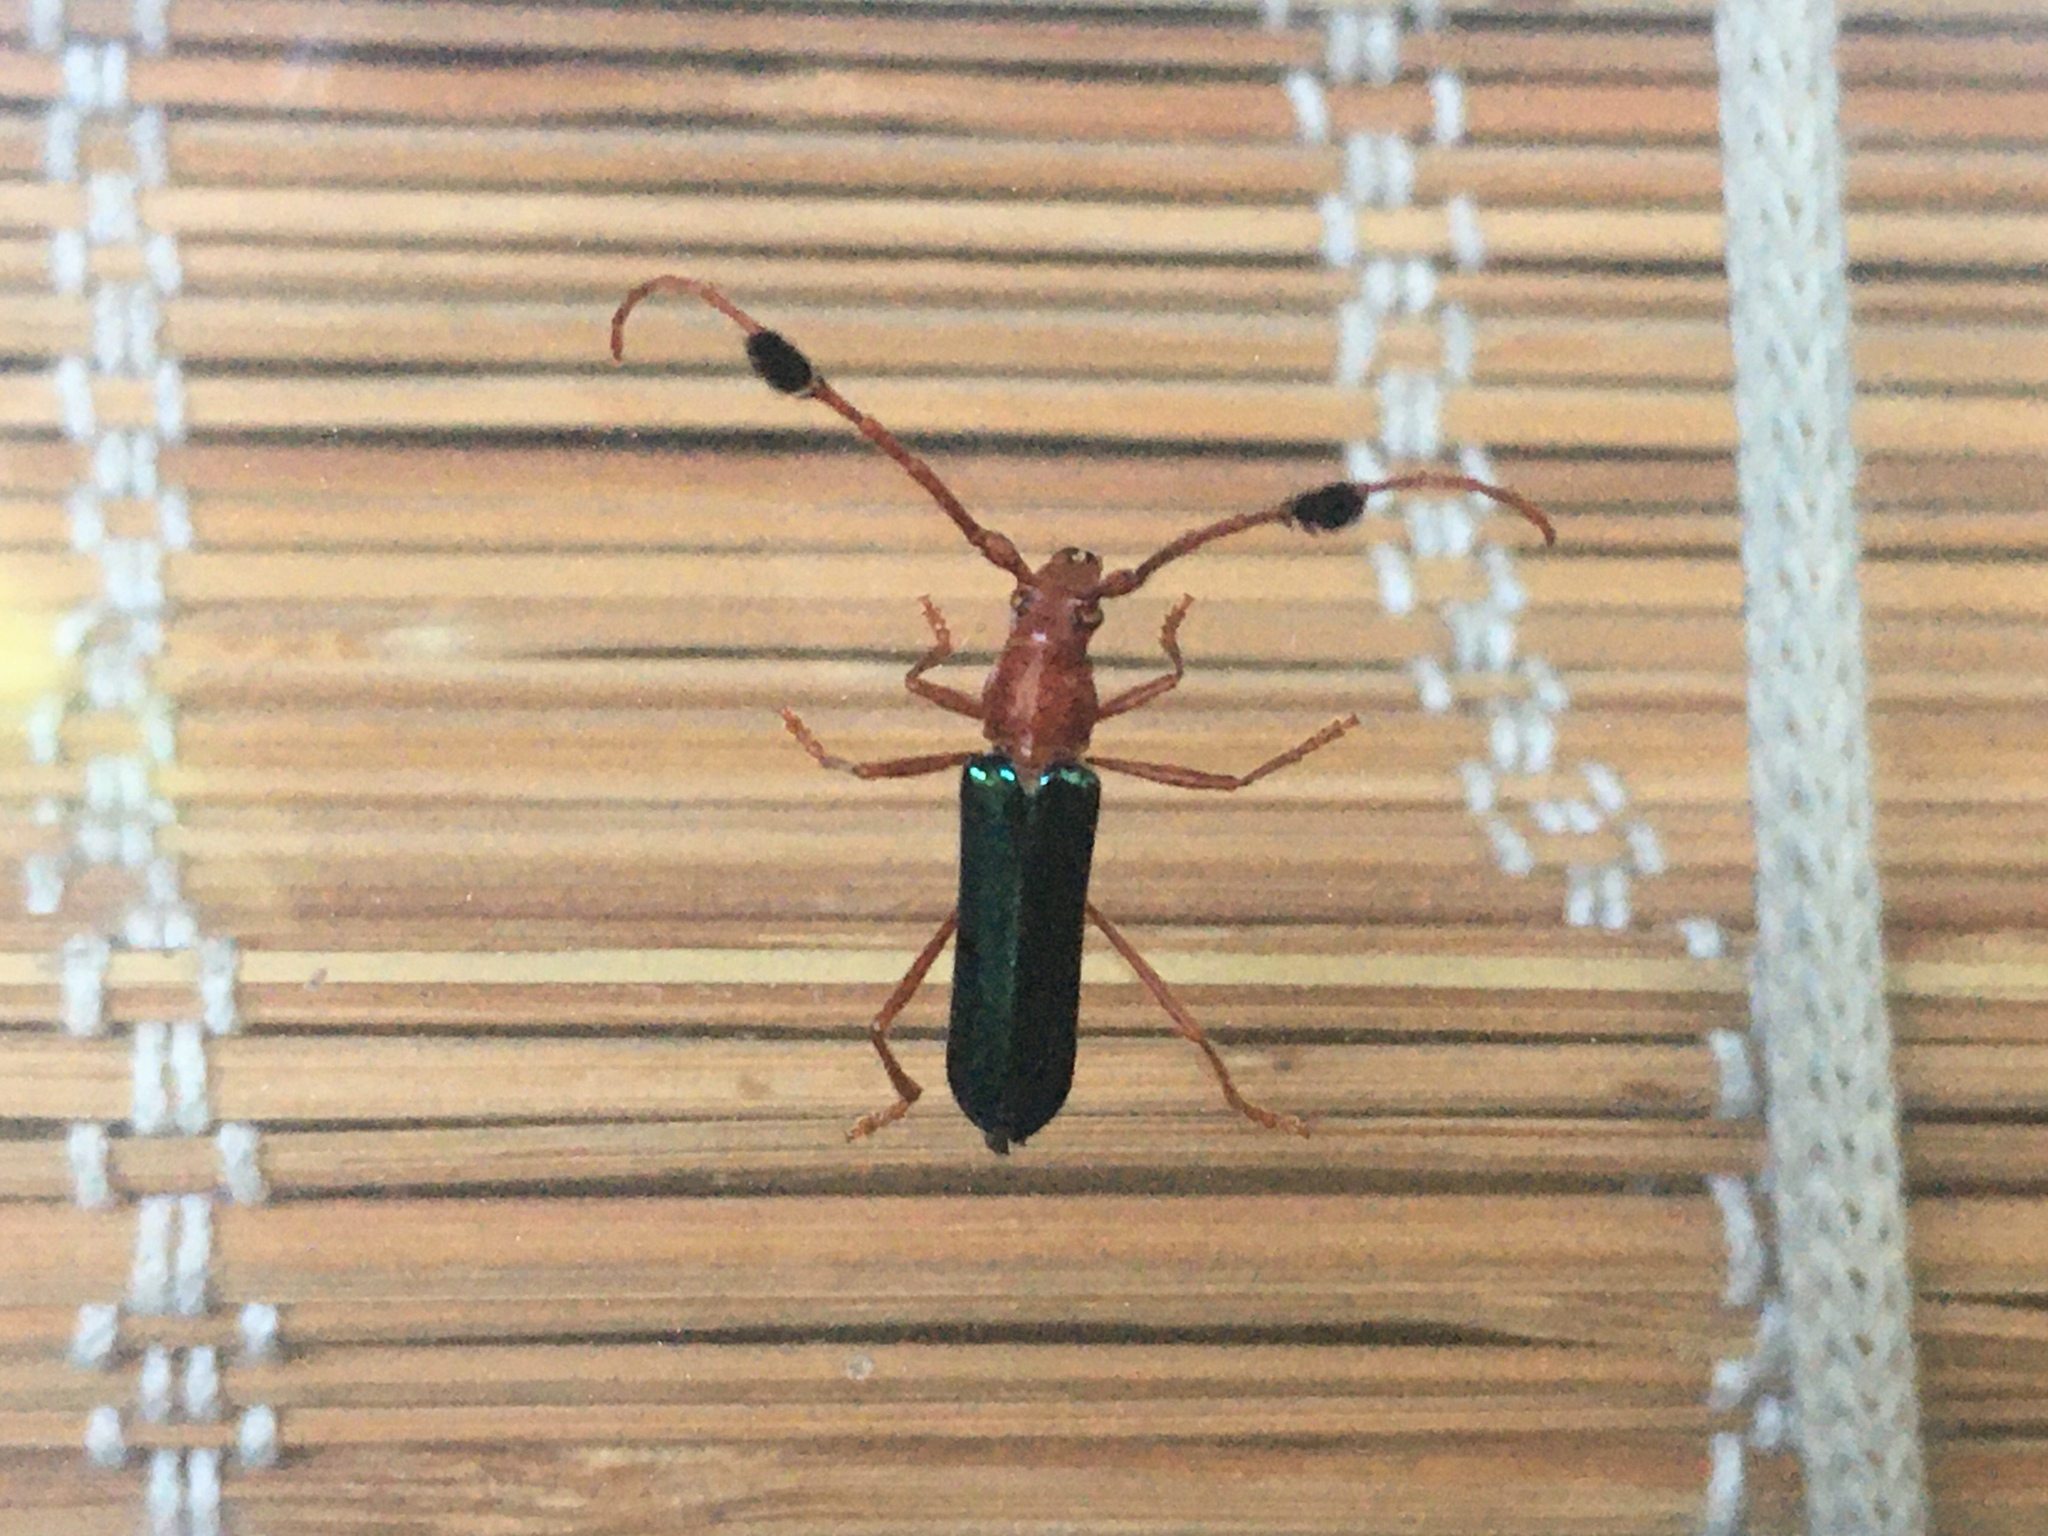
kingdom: Animalia
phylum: Arthropoda
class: Insecta
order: Coleoptera
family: Cerambycidae
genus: Compsocerus
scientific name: Compsocerus violaceus
